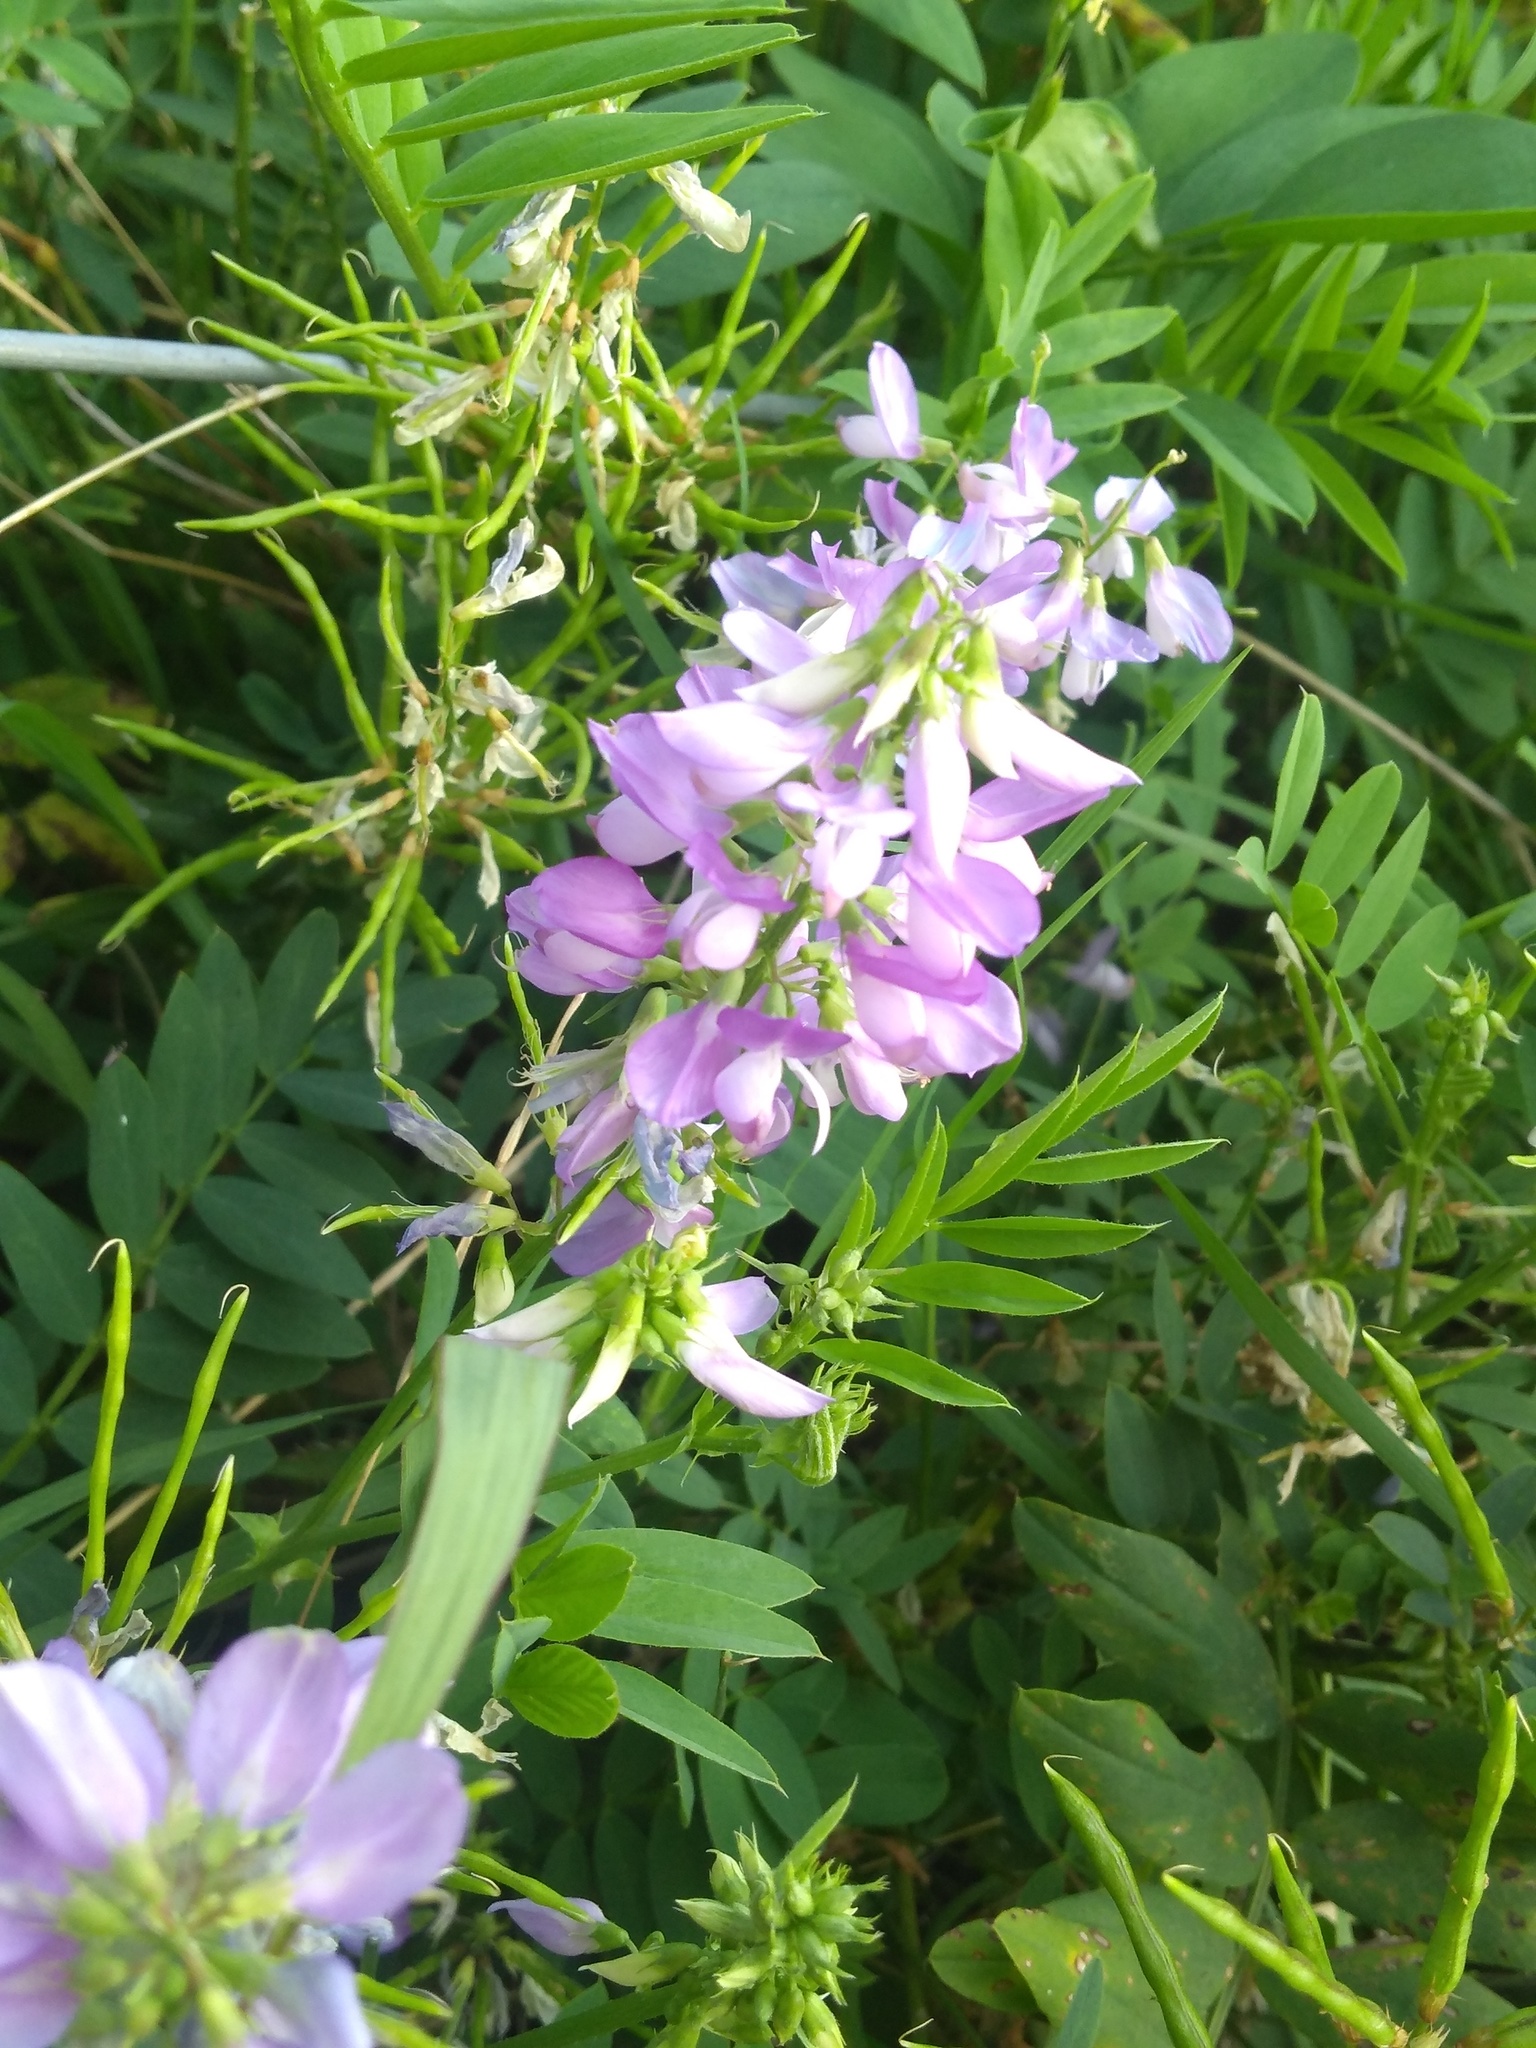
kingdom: Plantae
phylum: Tracheophyta
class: Magnoliopsida
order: Fabales
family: Fabaceae
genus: Galega
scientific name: Galega officinalis
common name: Goat's-rue
